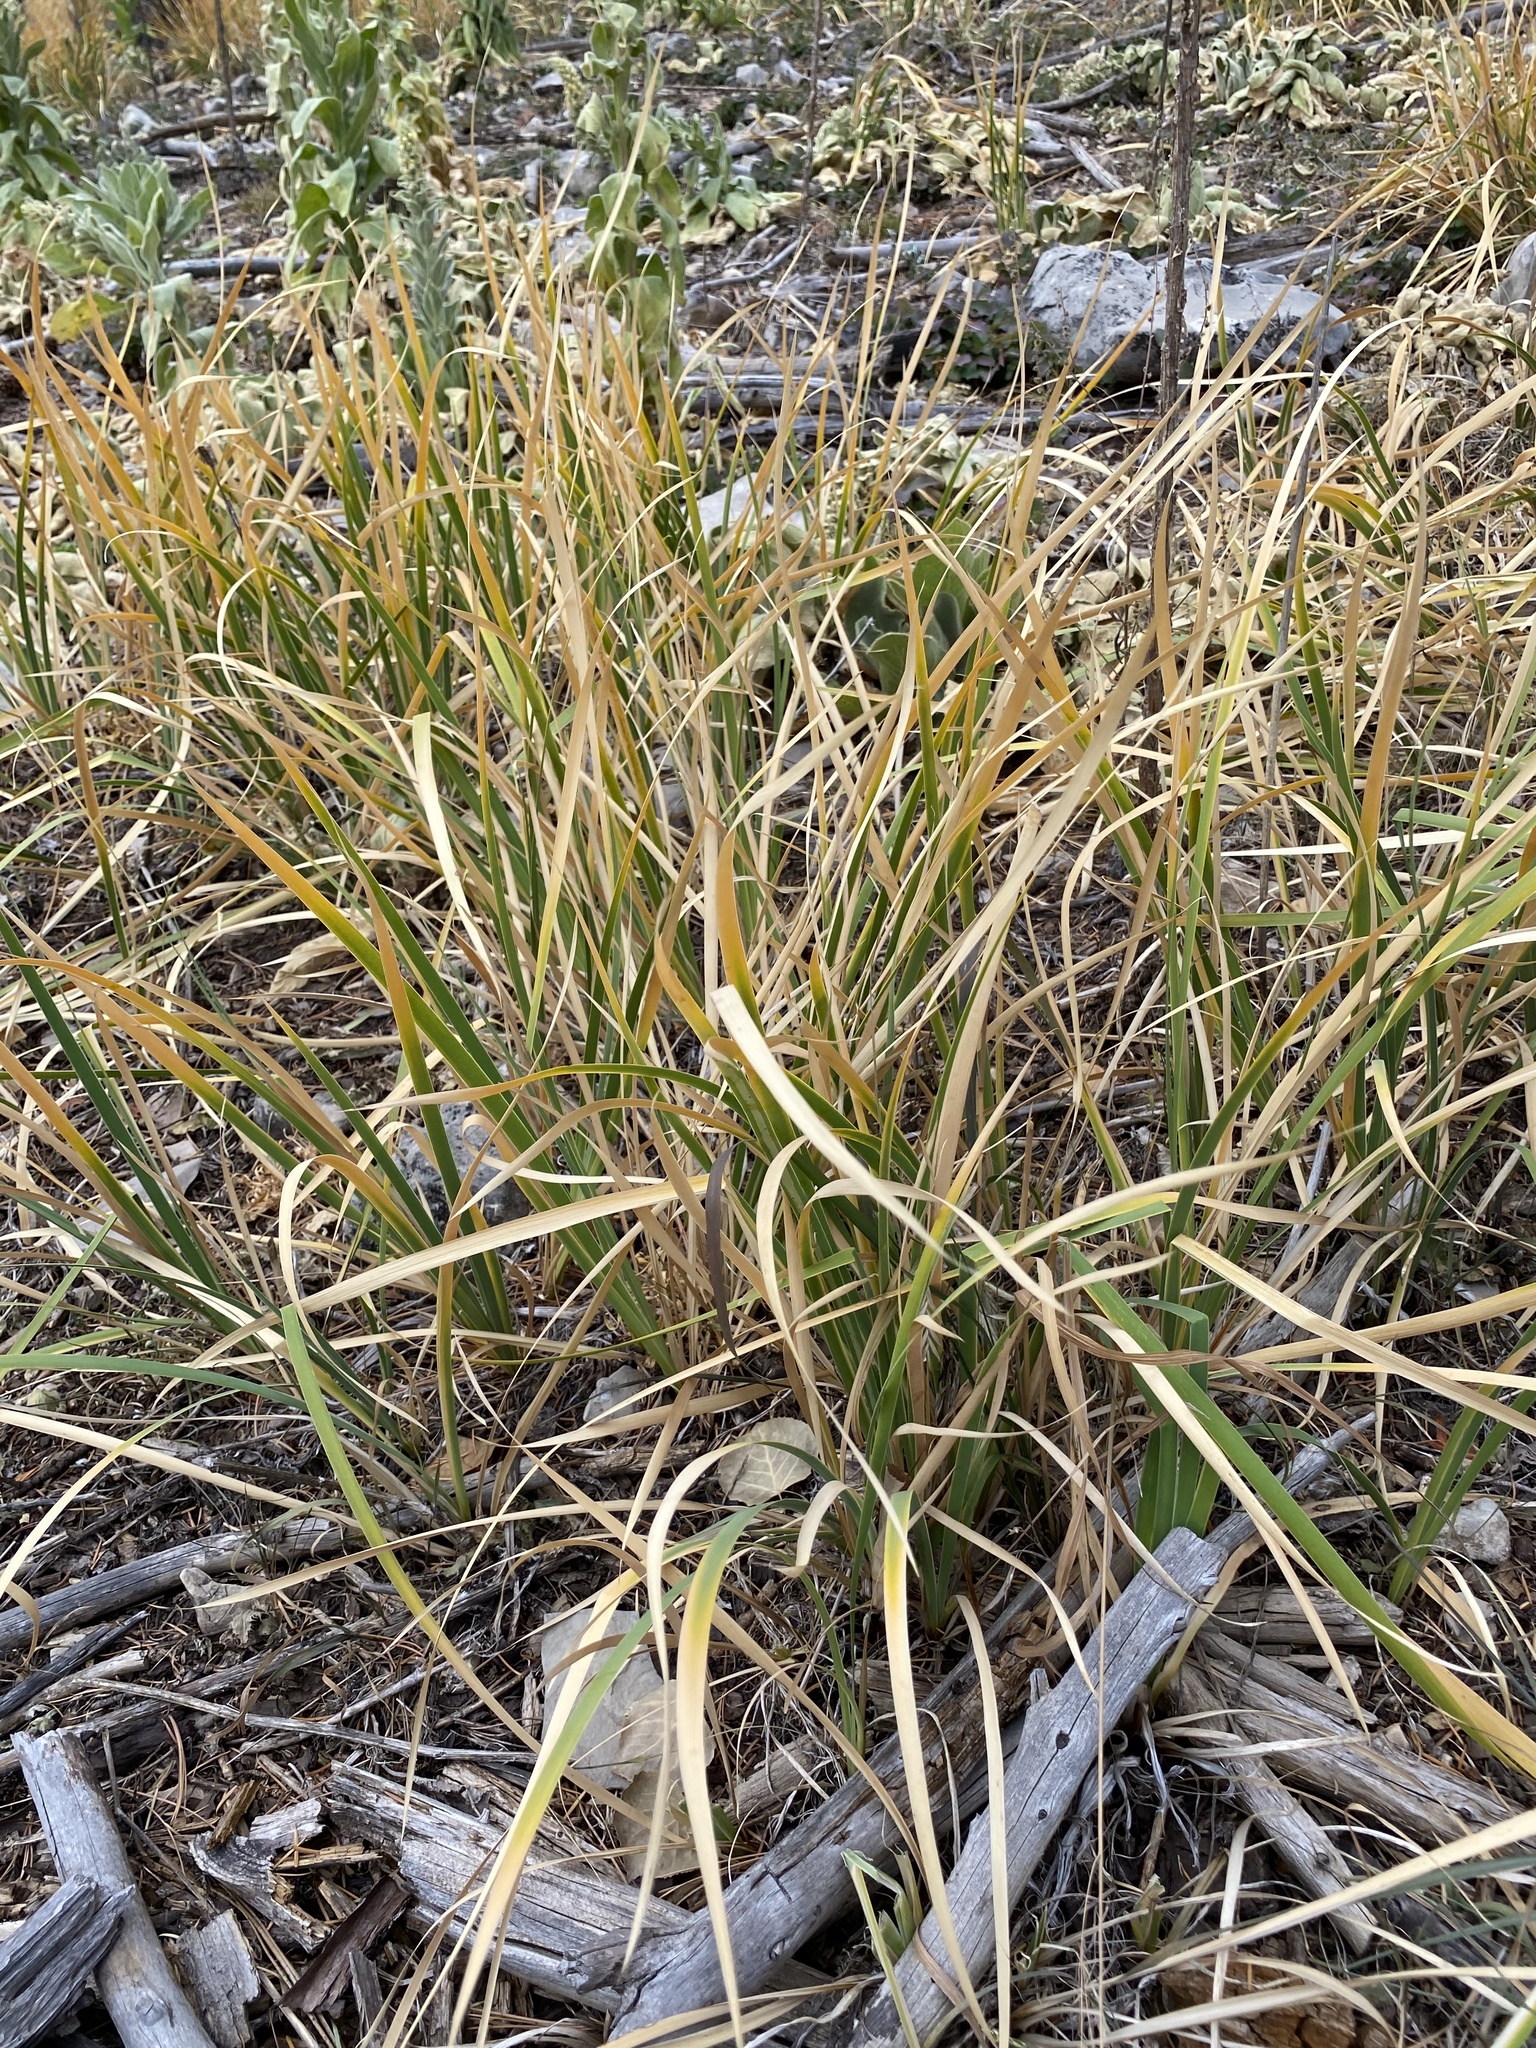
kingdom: Plantae
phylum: Tracheophyta
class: Liliopsida
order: Asparagales
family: Iridaceae
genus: Iris
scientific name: Iris missouriensis
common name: Rocky mountain iris
